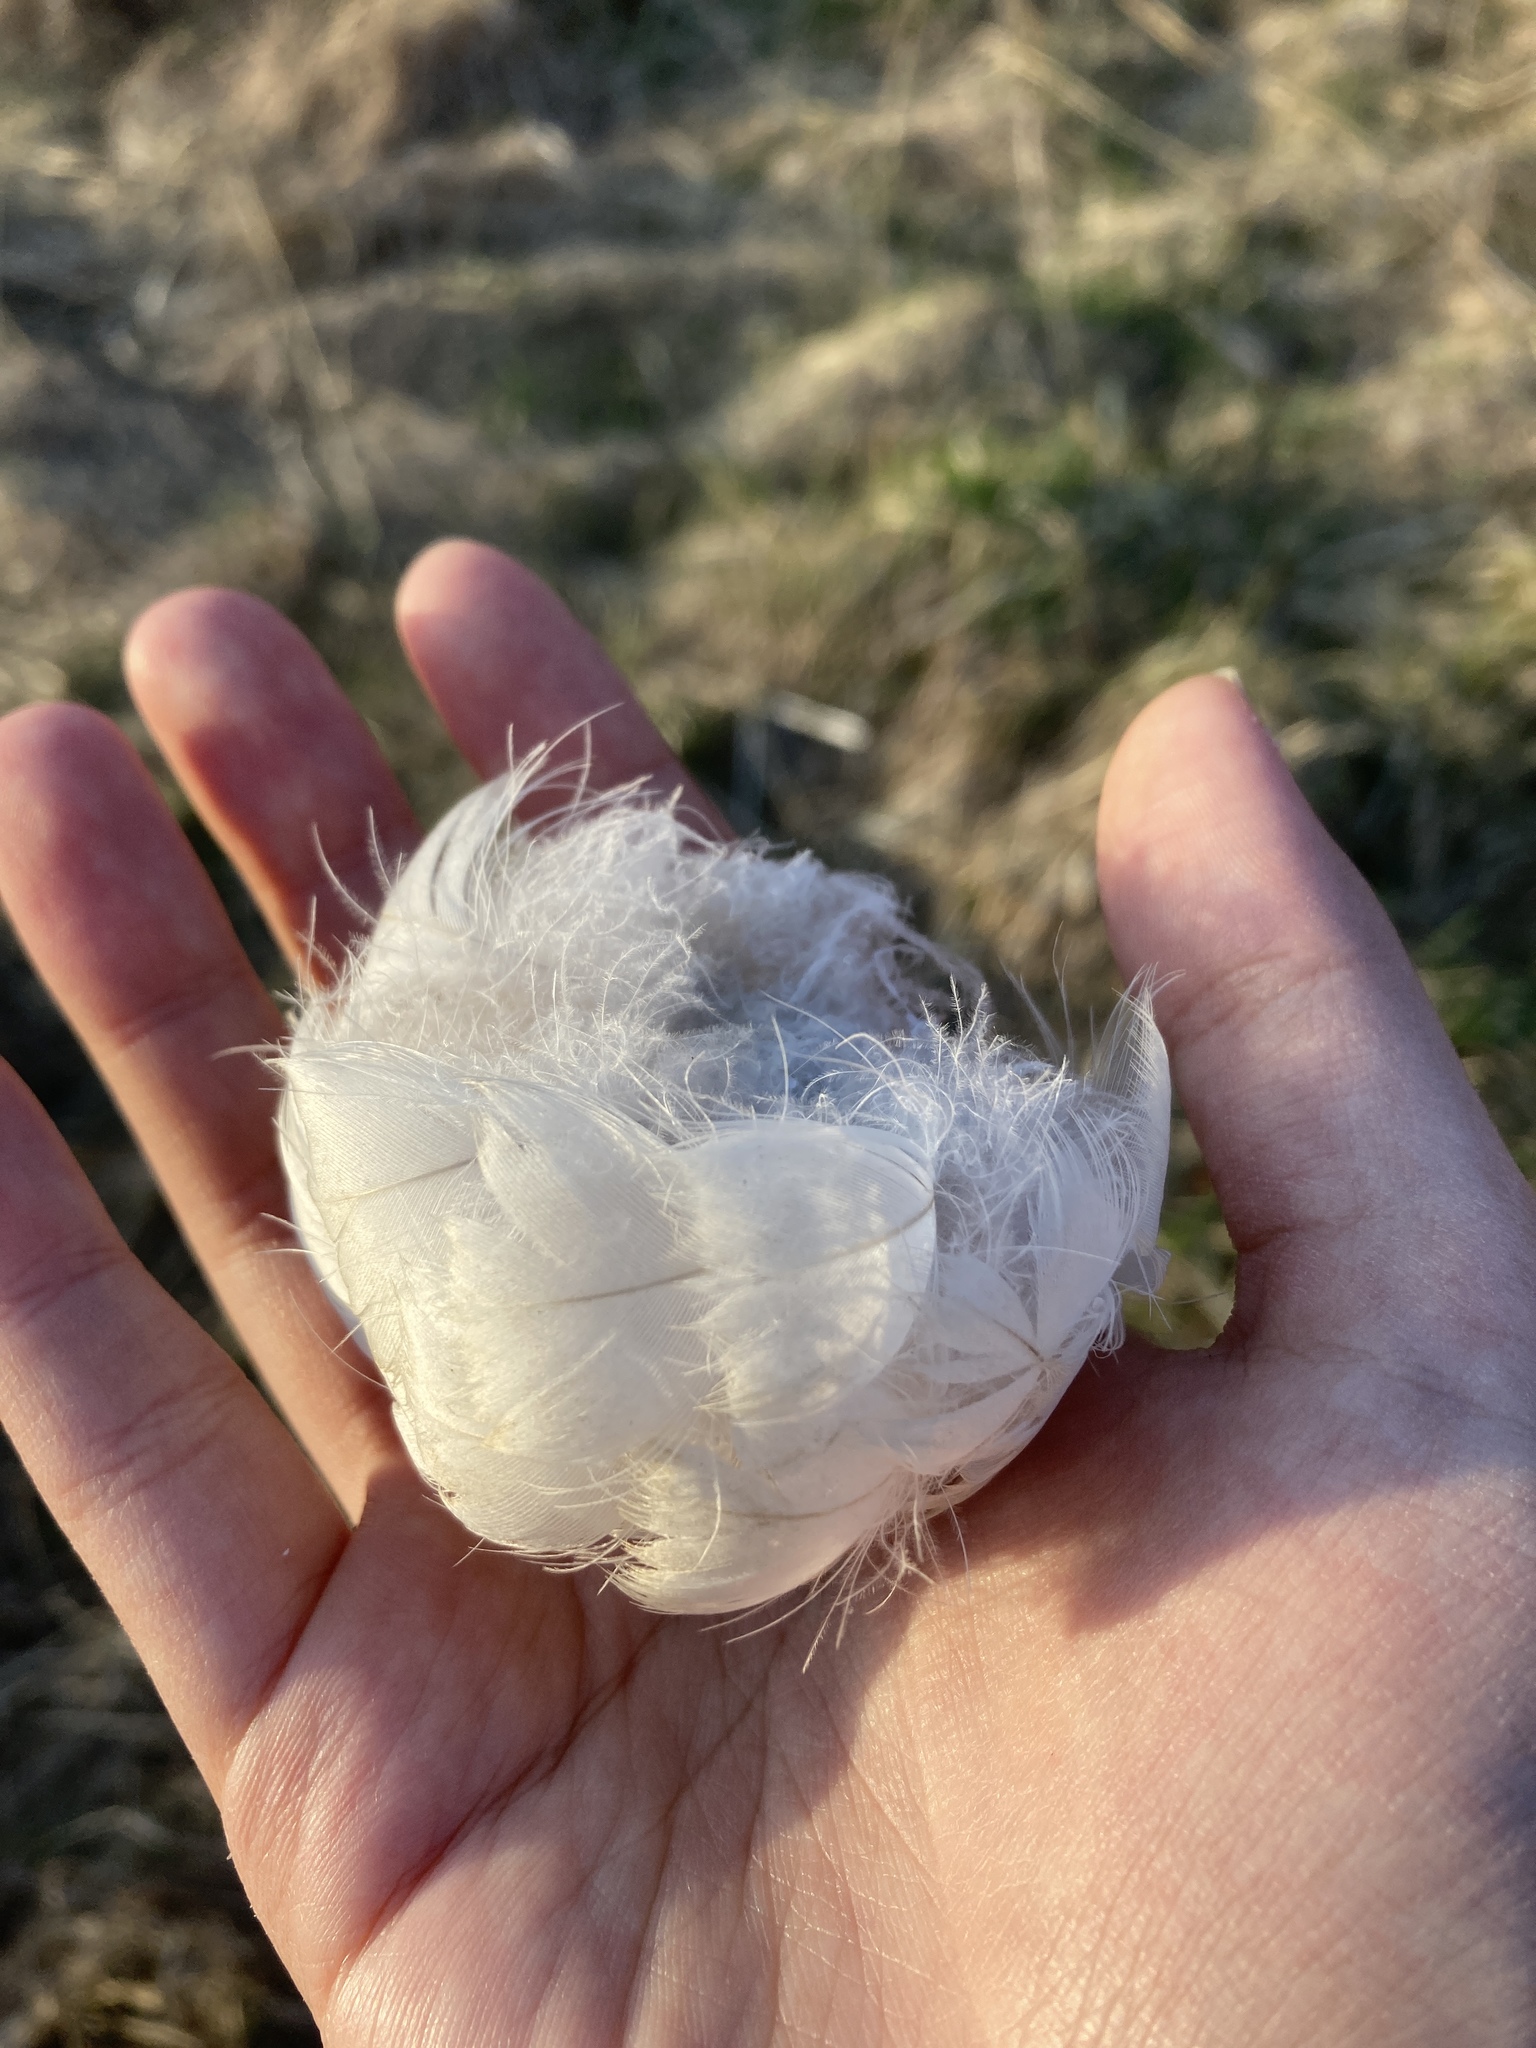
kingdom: Animalia
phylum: Chordata
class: Aves
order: Anseriformes
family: Anatidae
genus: Branta
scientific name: Branta canadensis
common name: Canada goose
